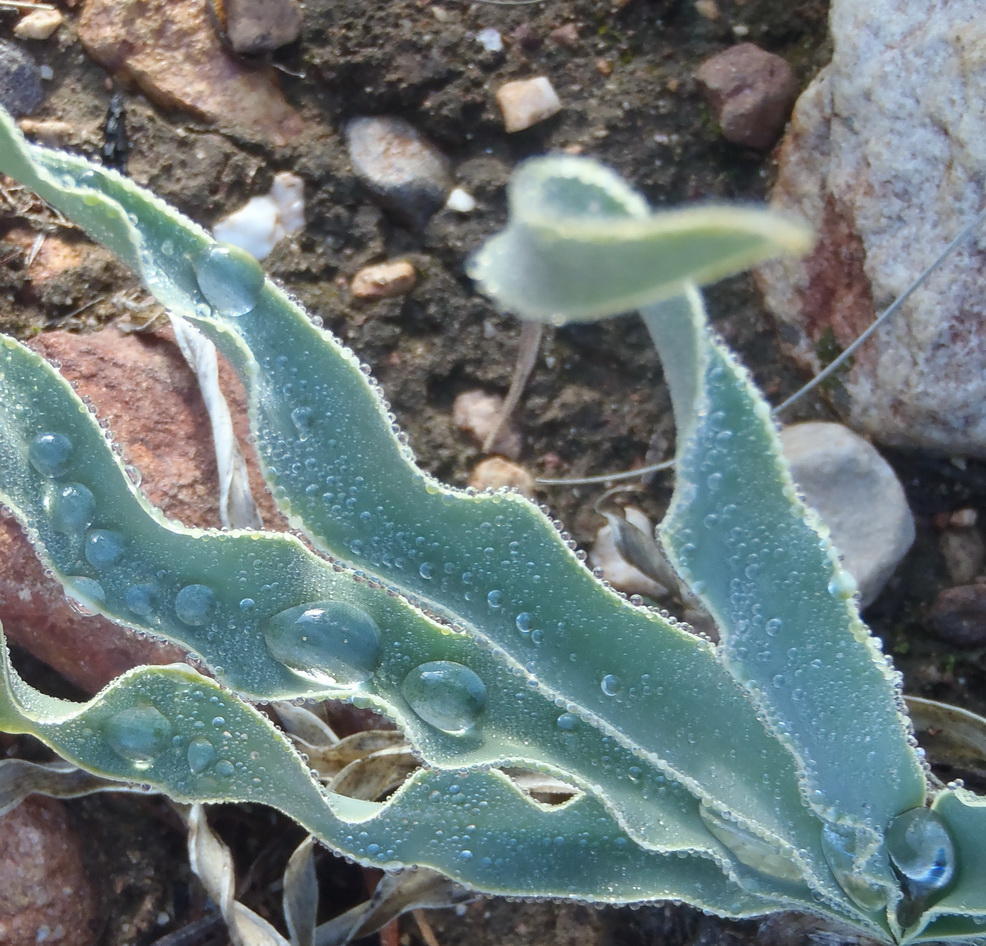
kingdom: Plantae
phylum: Tracheophyta
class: Liliopsida
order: Asparagales
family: Amaryllidaceae
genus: Boophone
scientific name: Boophone disticha
